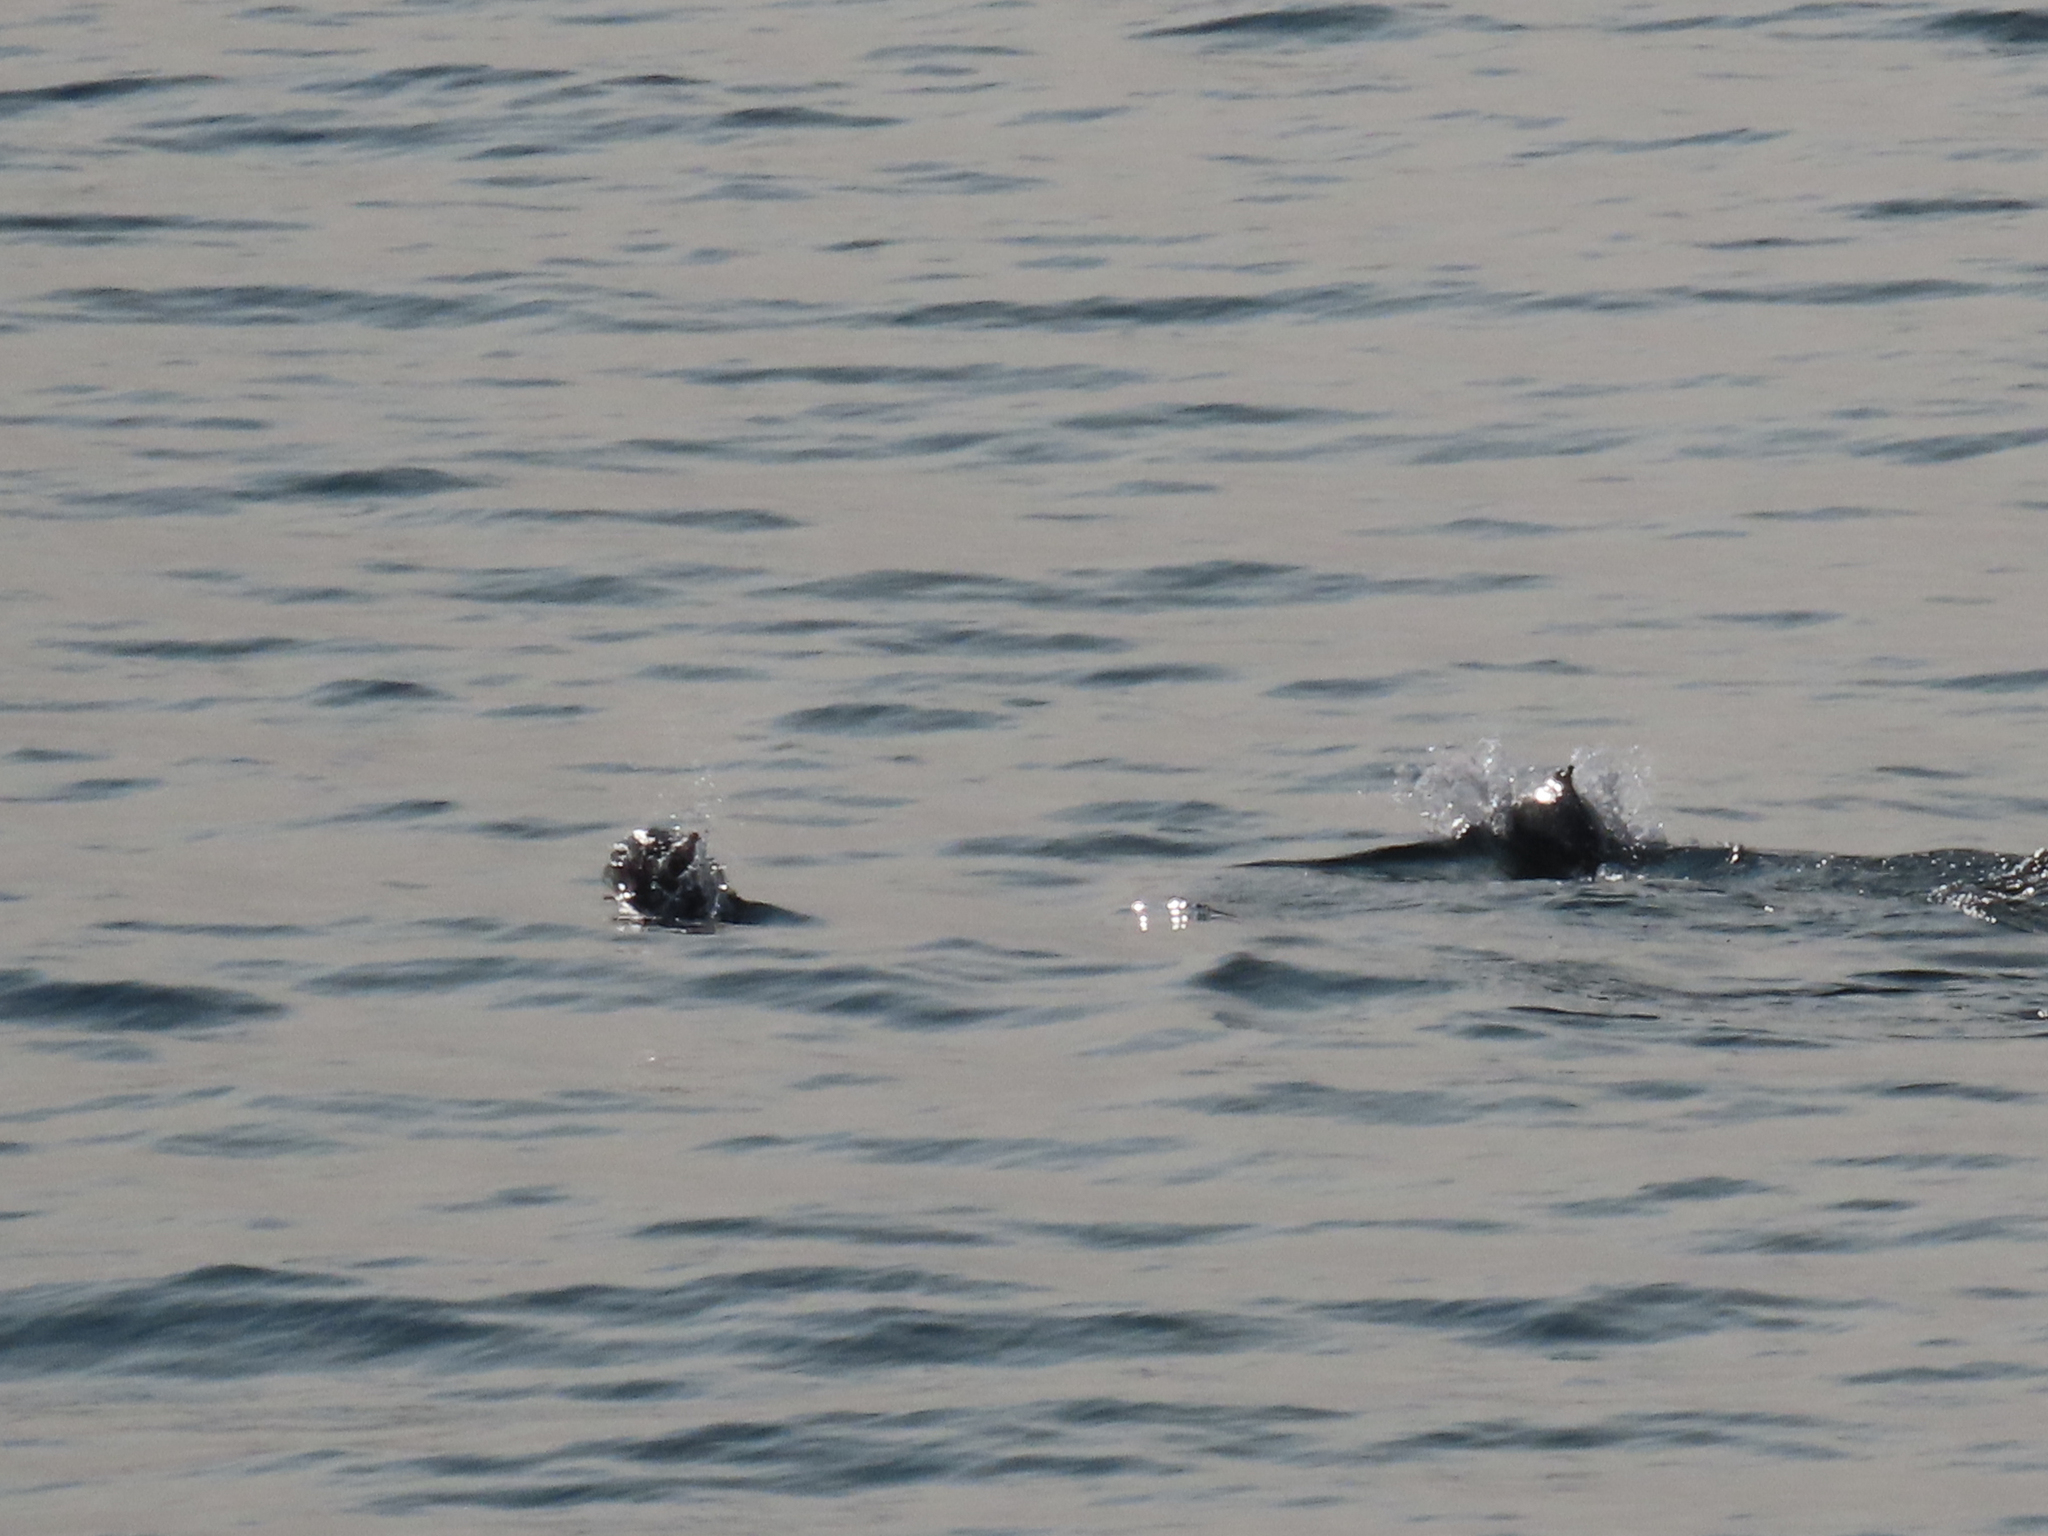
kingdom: Animalia
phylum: Chordata
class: Mammalia
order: Cetacea
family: Phocoenidae
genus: Phocoena
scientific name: Phocoena phocoena
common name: Harbor porpoise
